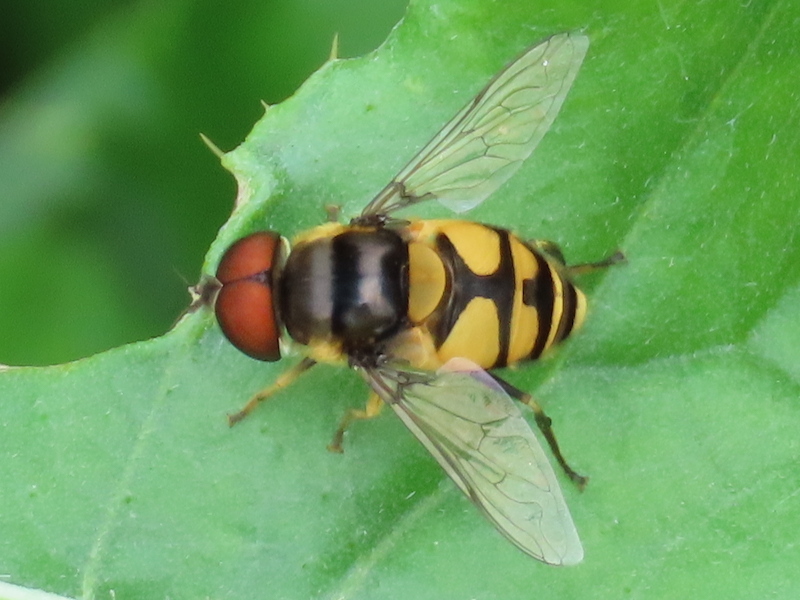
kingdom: Animalia
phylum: Arthropoda
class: Insecta
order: Diptera
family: Syrphidae
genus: Eristalis
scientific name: Eristalis transversa
